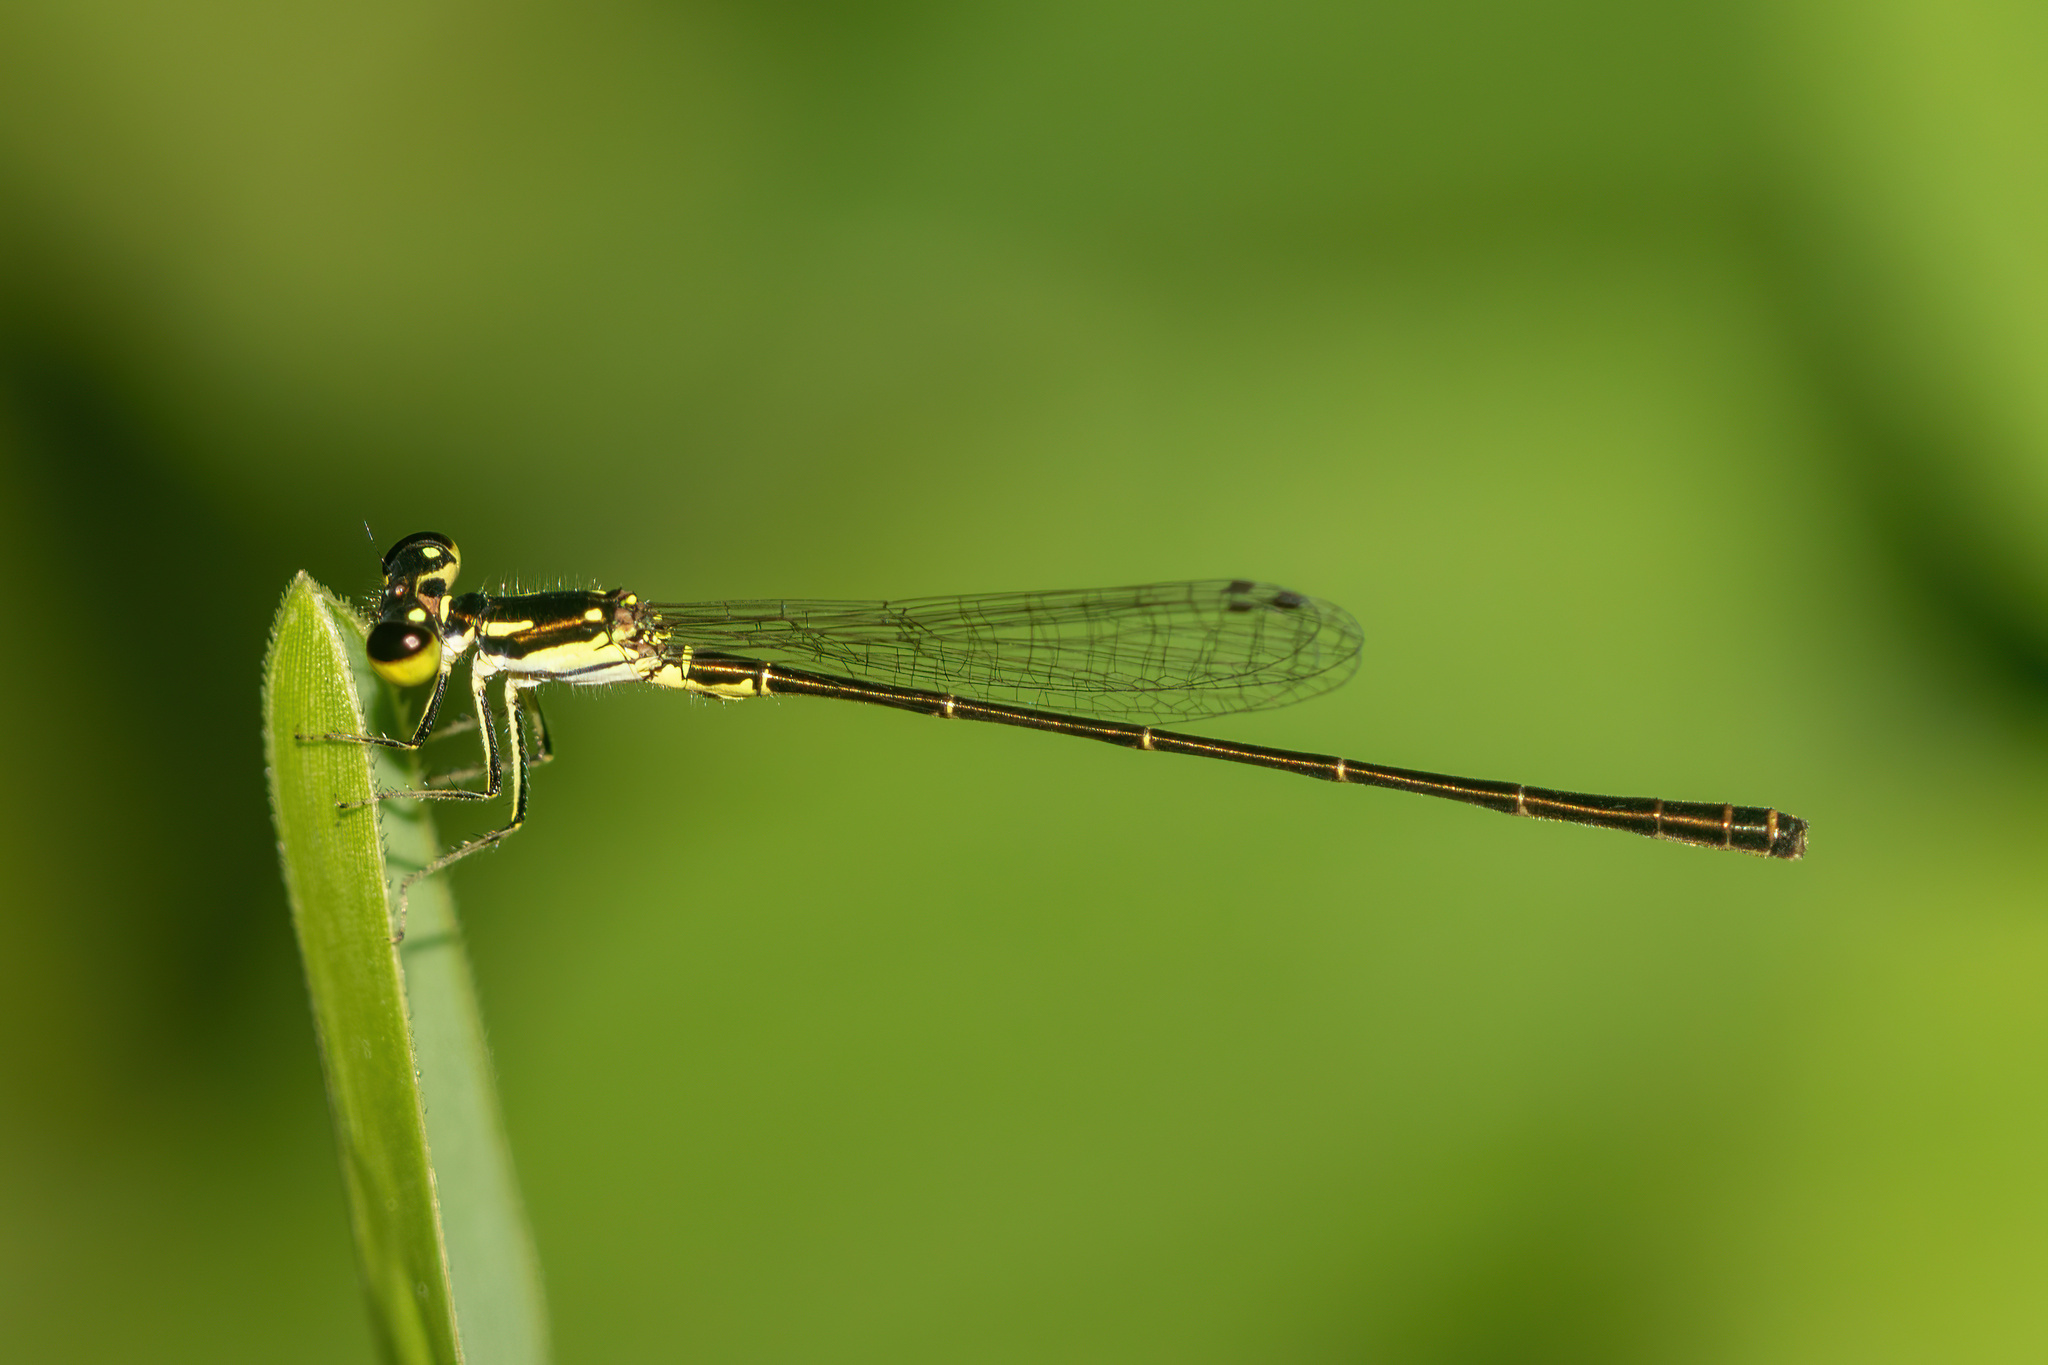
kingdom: Animalia
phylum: Arthropoda
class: Insecta
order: Odonata
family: Coenagrionidae
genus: Ischnura
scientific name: Ischnura posita
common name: Fragile forktail
